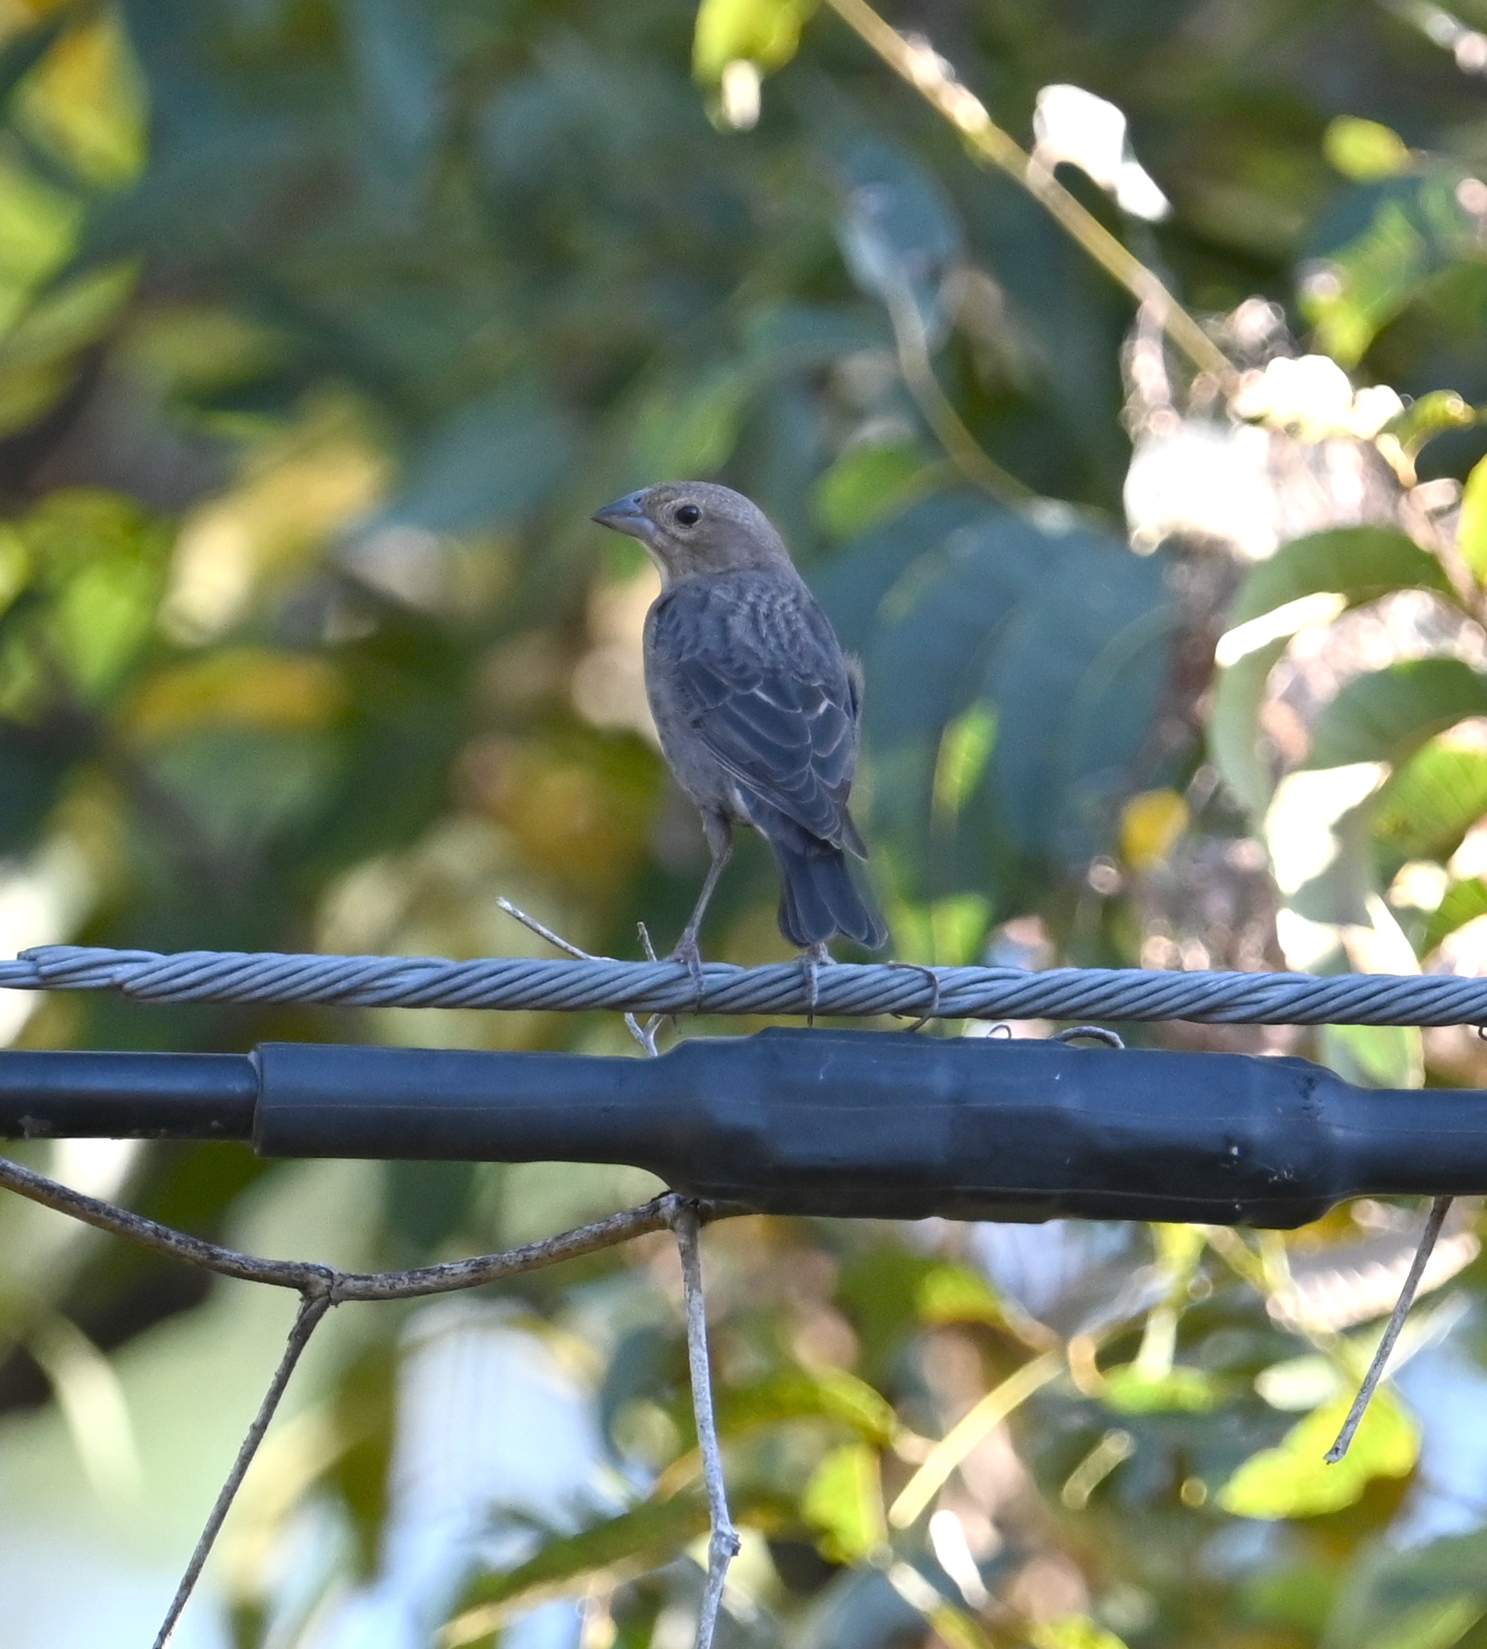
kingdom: Animalia
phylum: Chordata
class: Aves
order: Passeriformes
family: Icteridae
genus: Molothrus
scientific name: Molothrus ater
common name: Brown-headed cowbird
